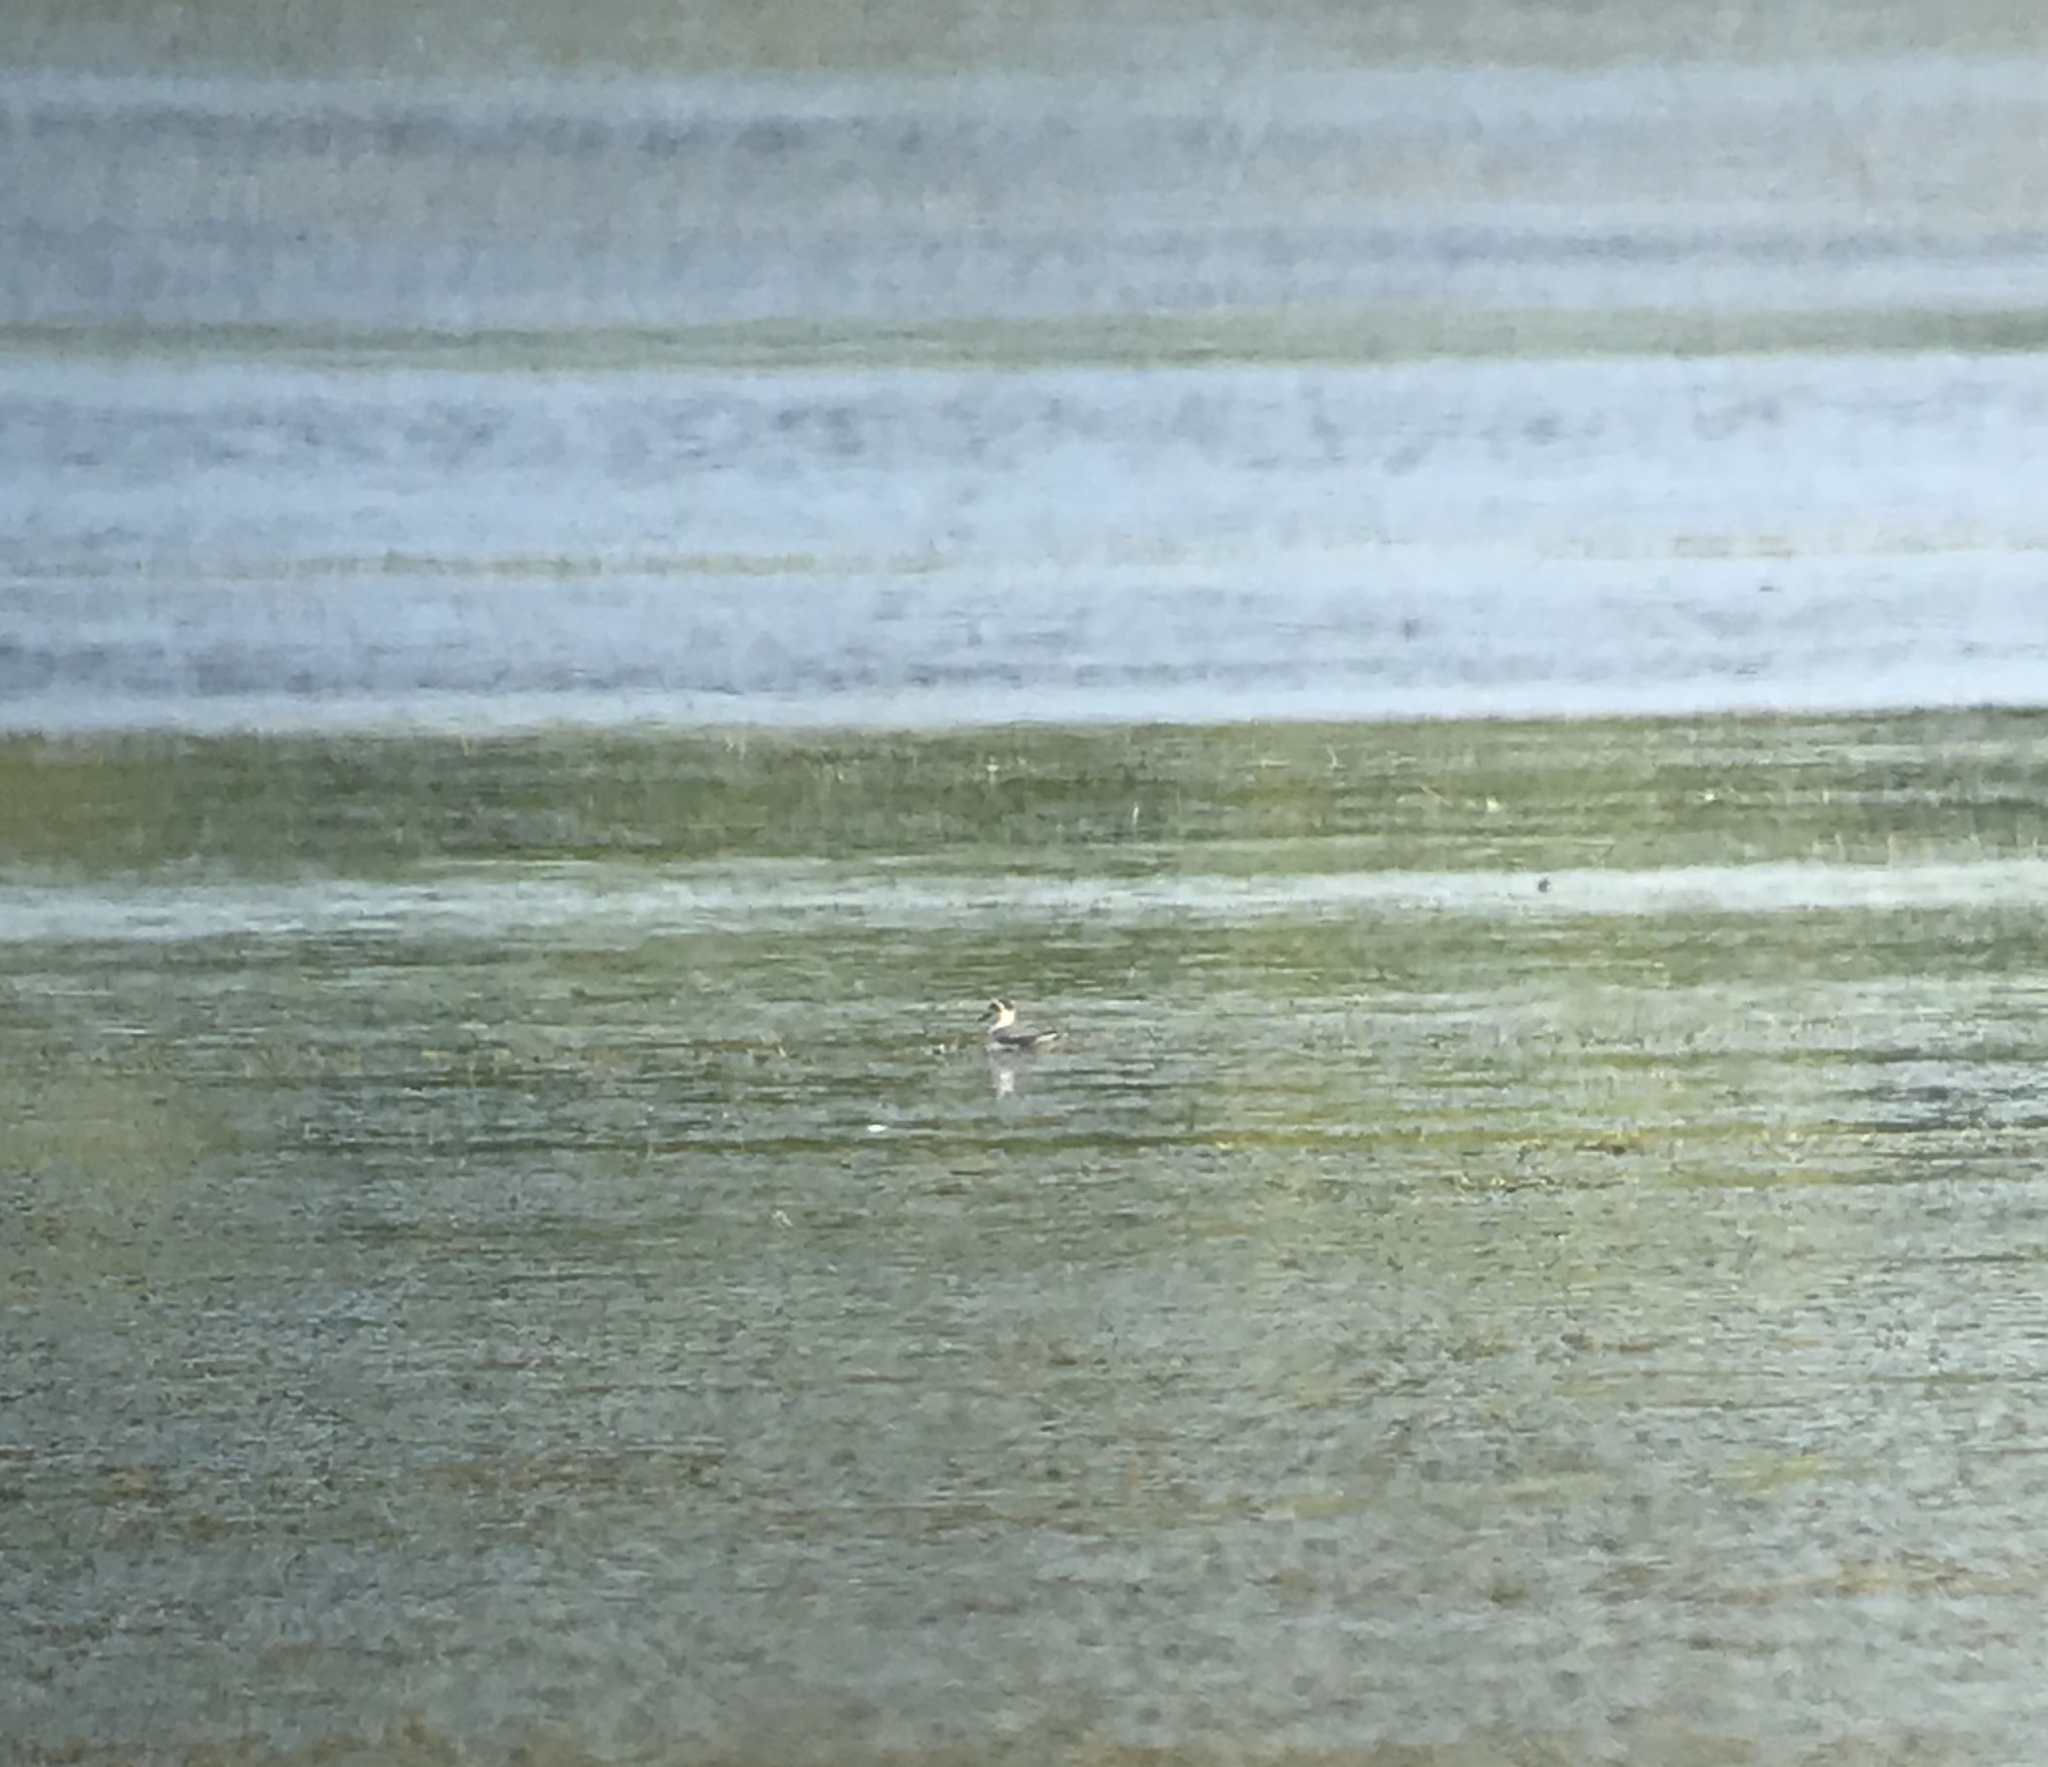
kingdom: Animalia
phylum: Chordata
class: Aves
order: Charadriiformes
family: Scolopacidae
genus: Phalaropus
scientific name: Phalaropus fulicarius
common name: Red phalarope
